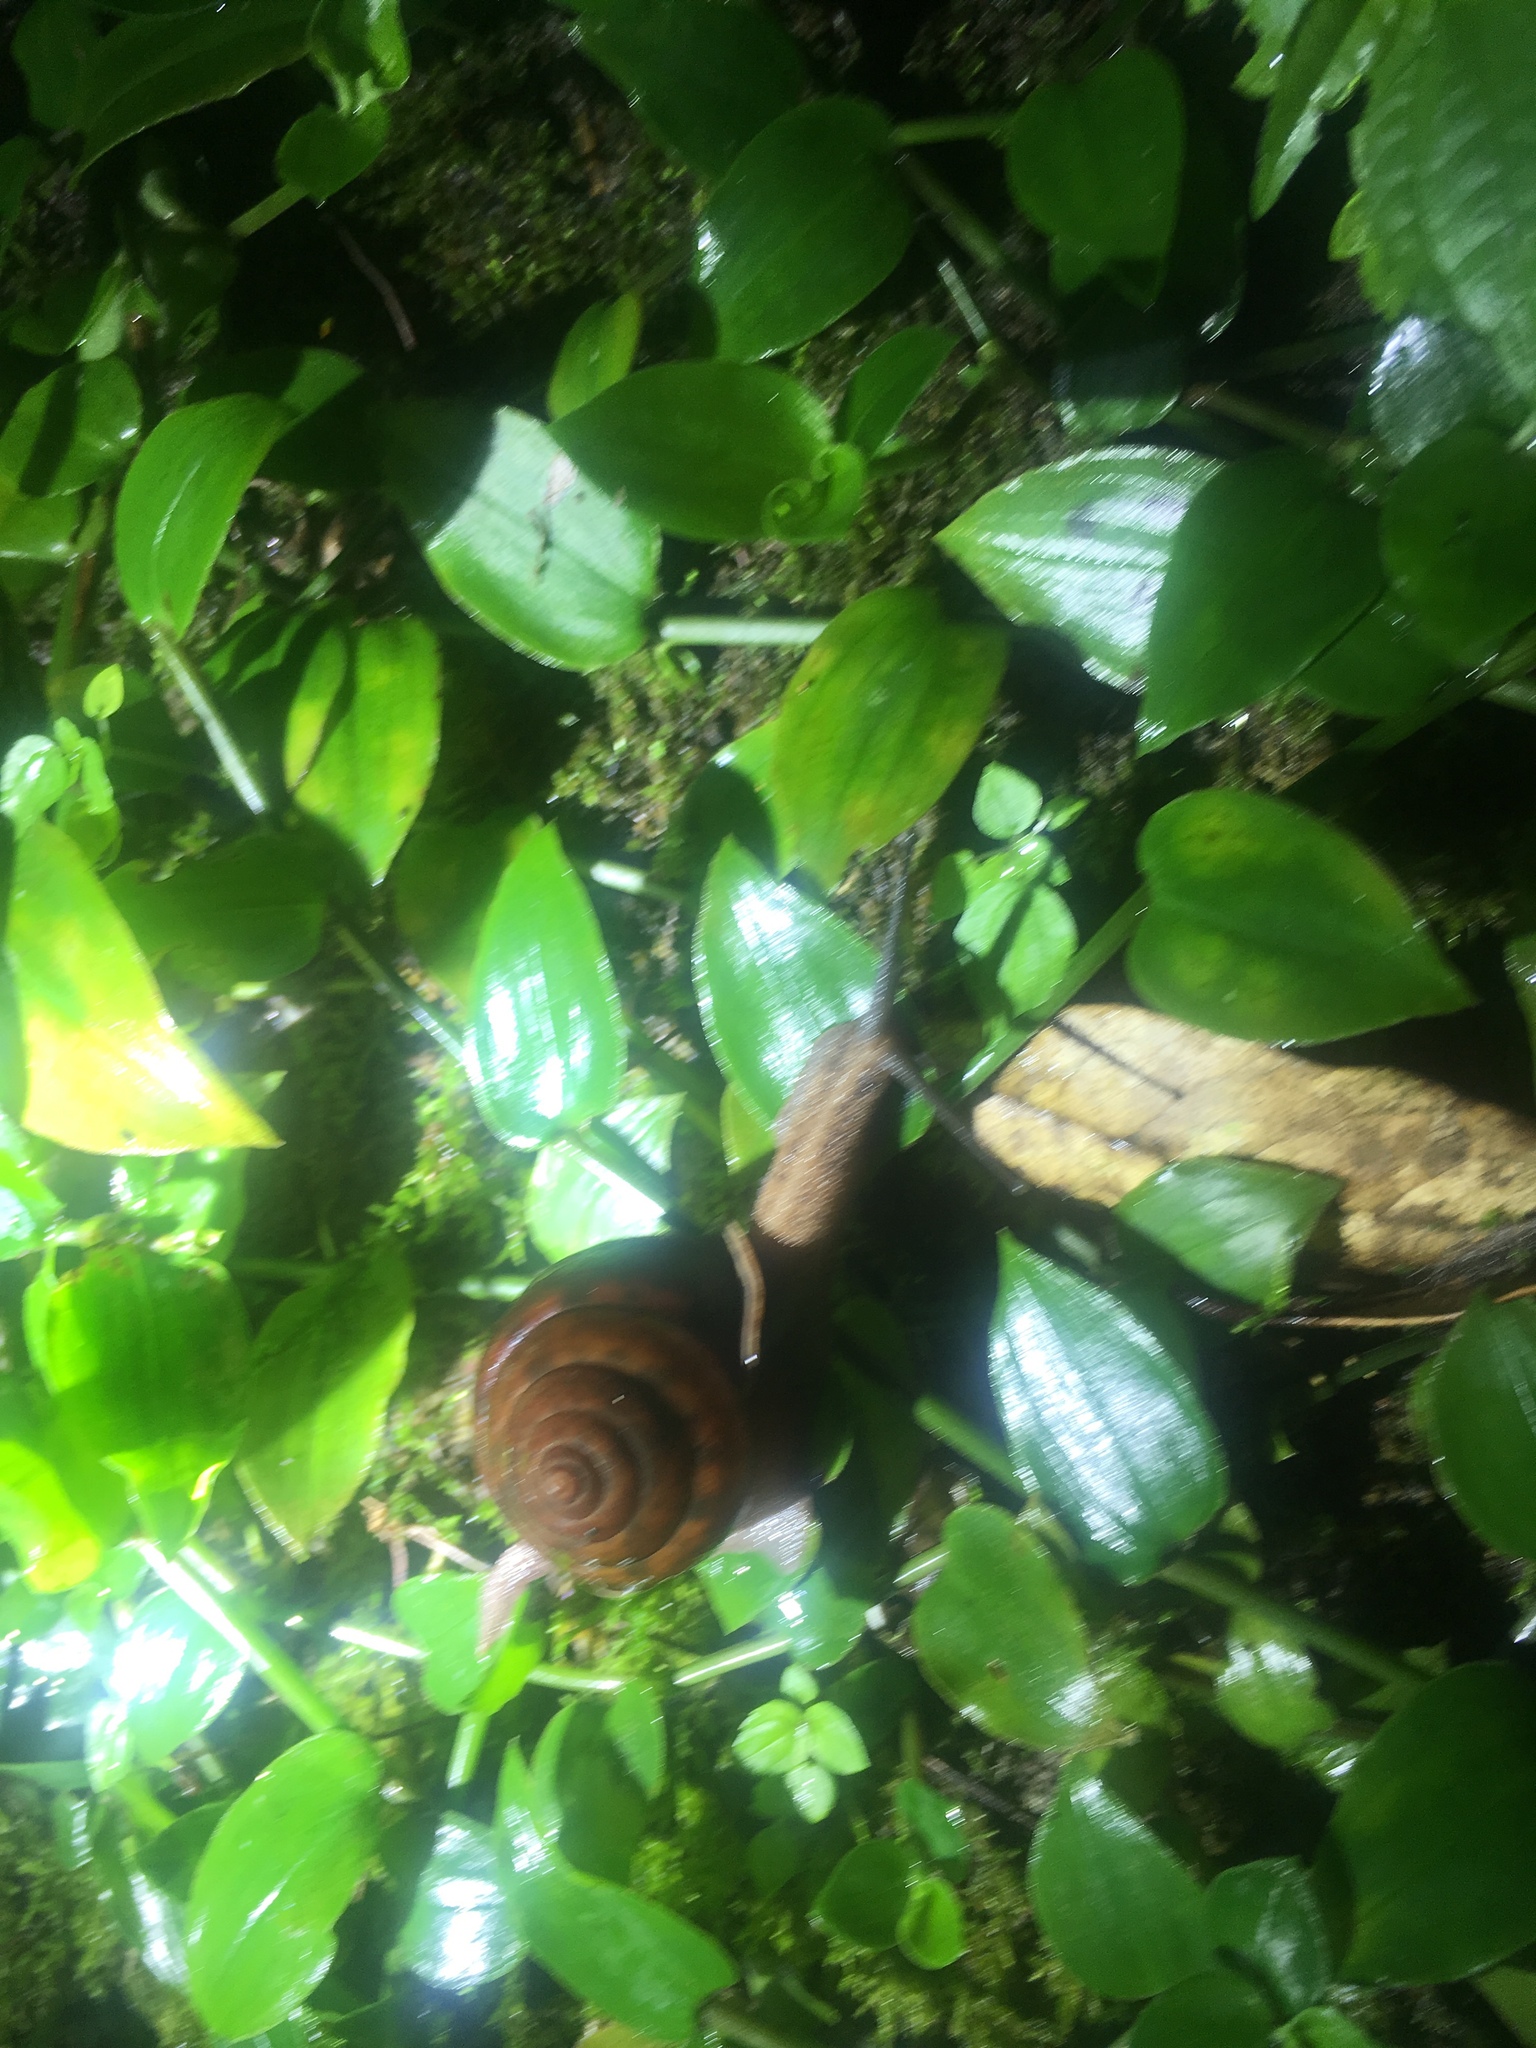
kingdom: Animalia
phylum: Mollusca
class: Gastropoda
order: Stylommatophora
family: Camaenidae
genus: Satsuma
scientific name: Satsuma nux
